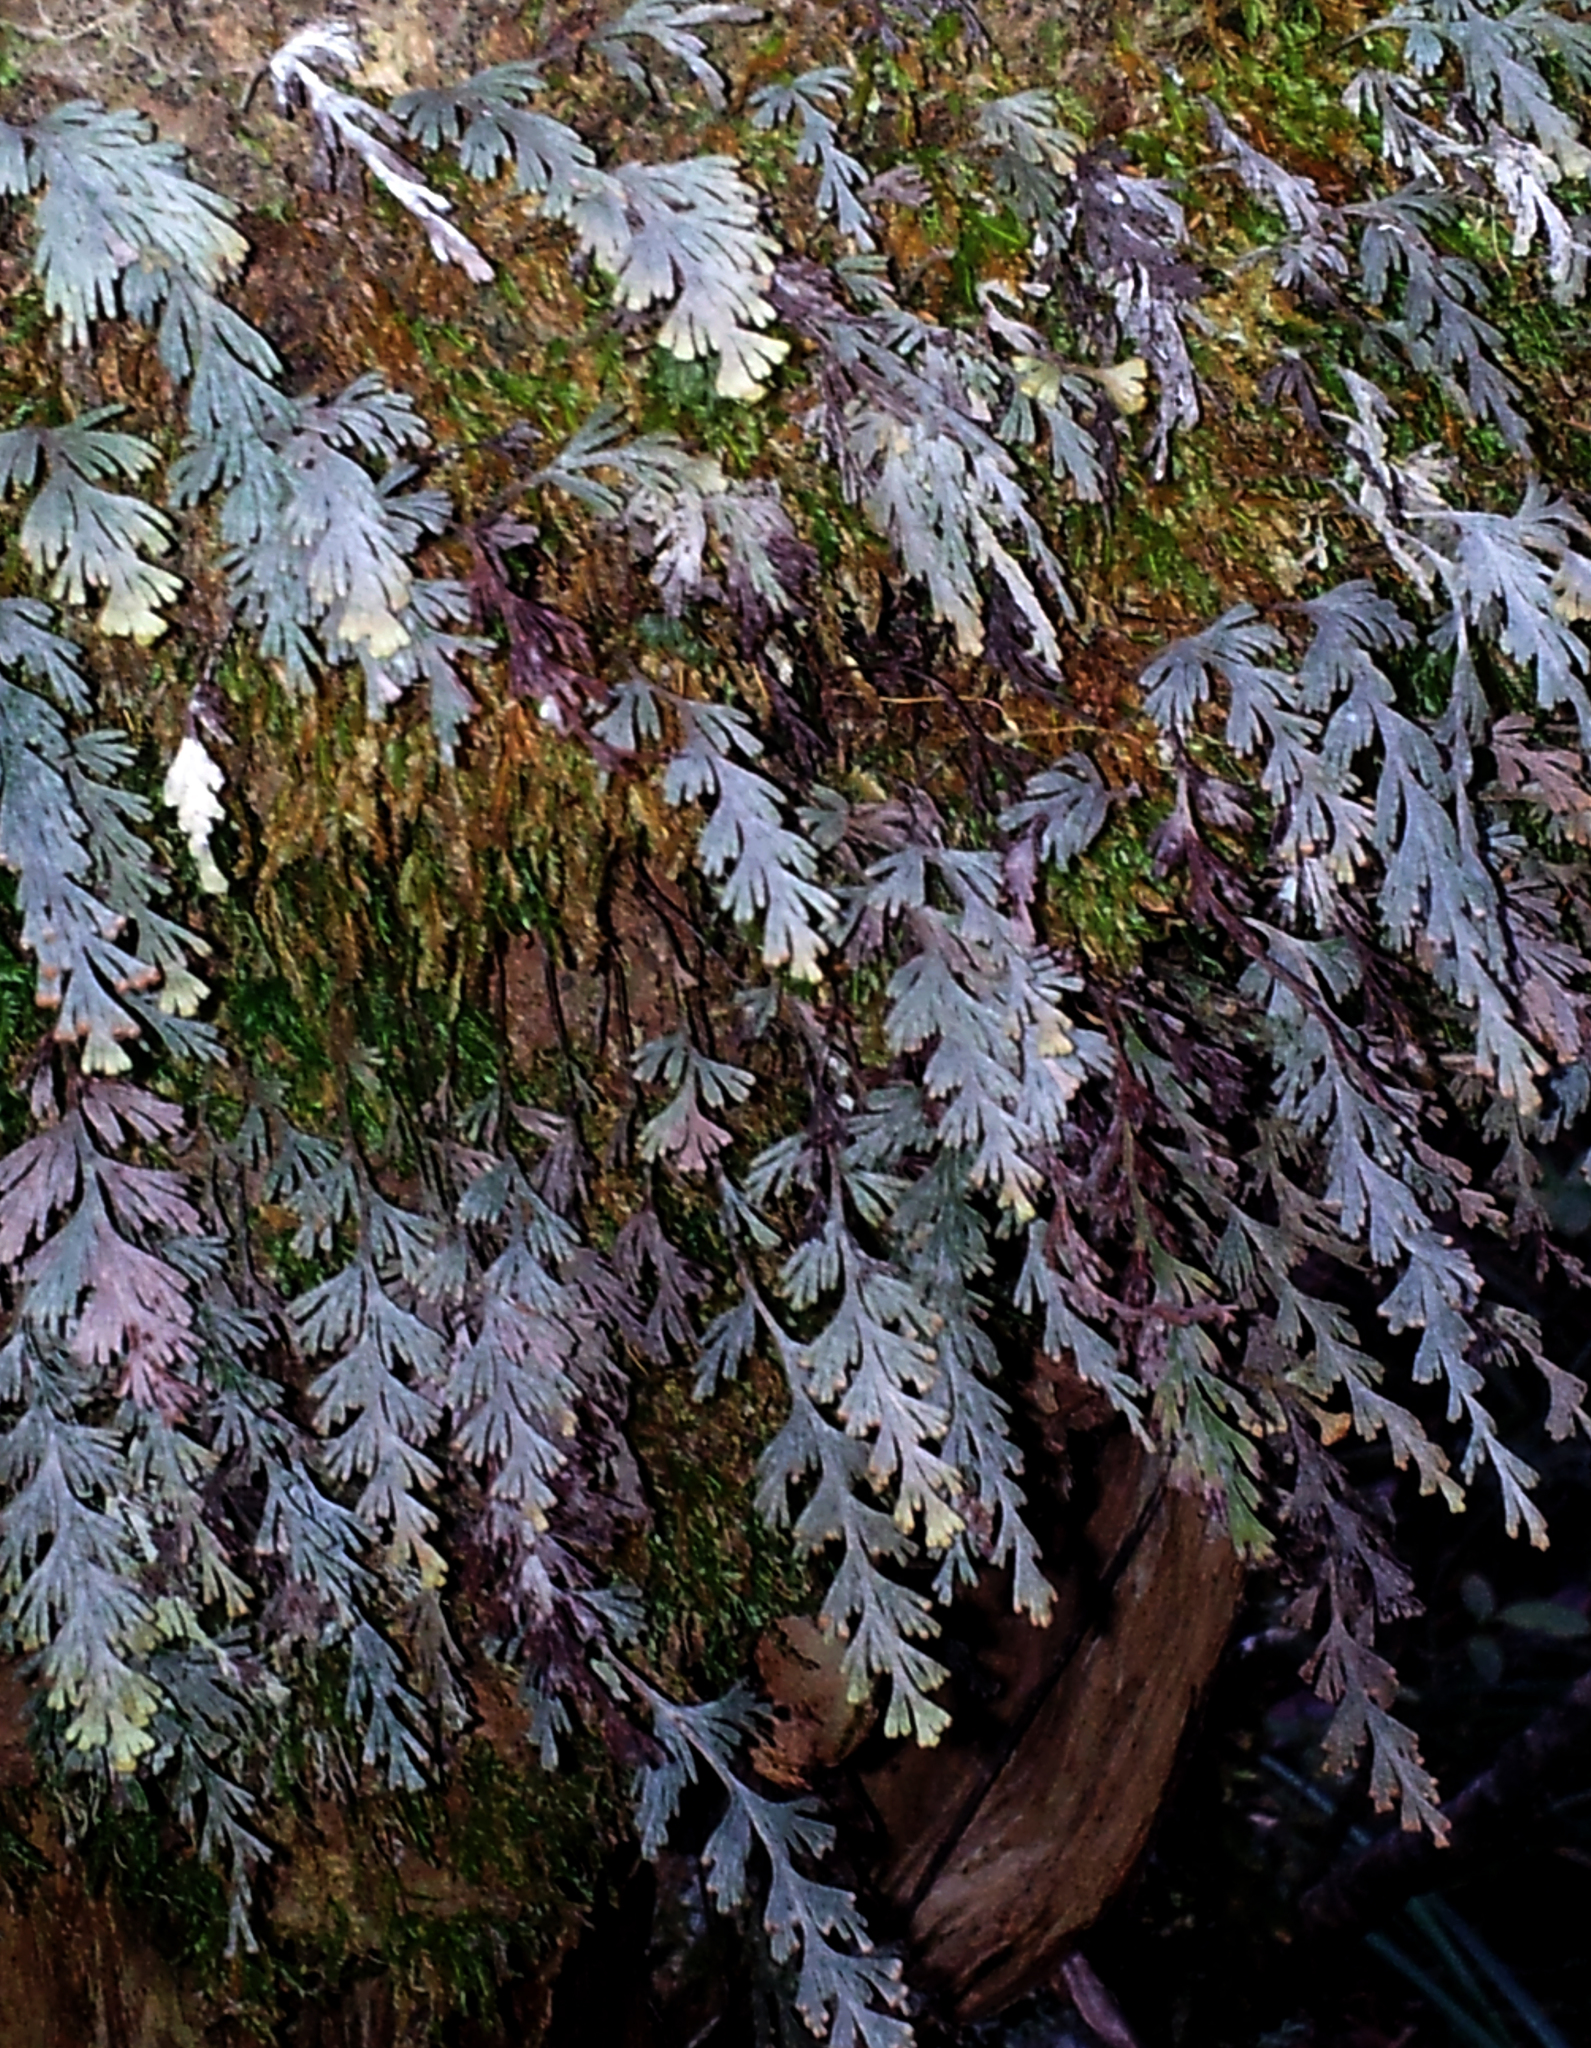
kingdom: Plantae
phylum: Tracheophyta
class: Polypodiopsida
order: Hymenophyllales
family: Hymenophyllaceae
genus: Hymenophyllum
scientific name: Hymenophyllum malingii
